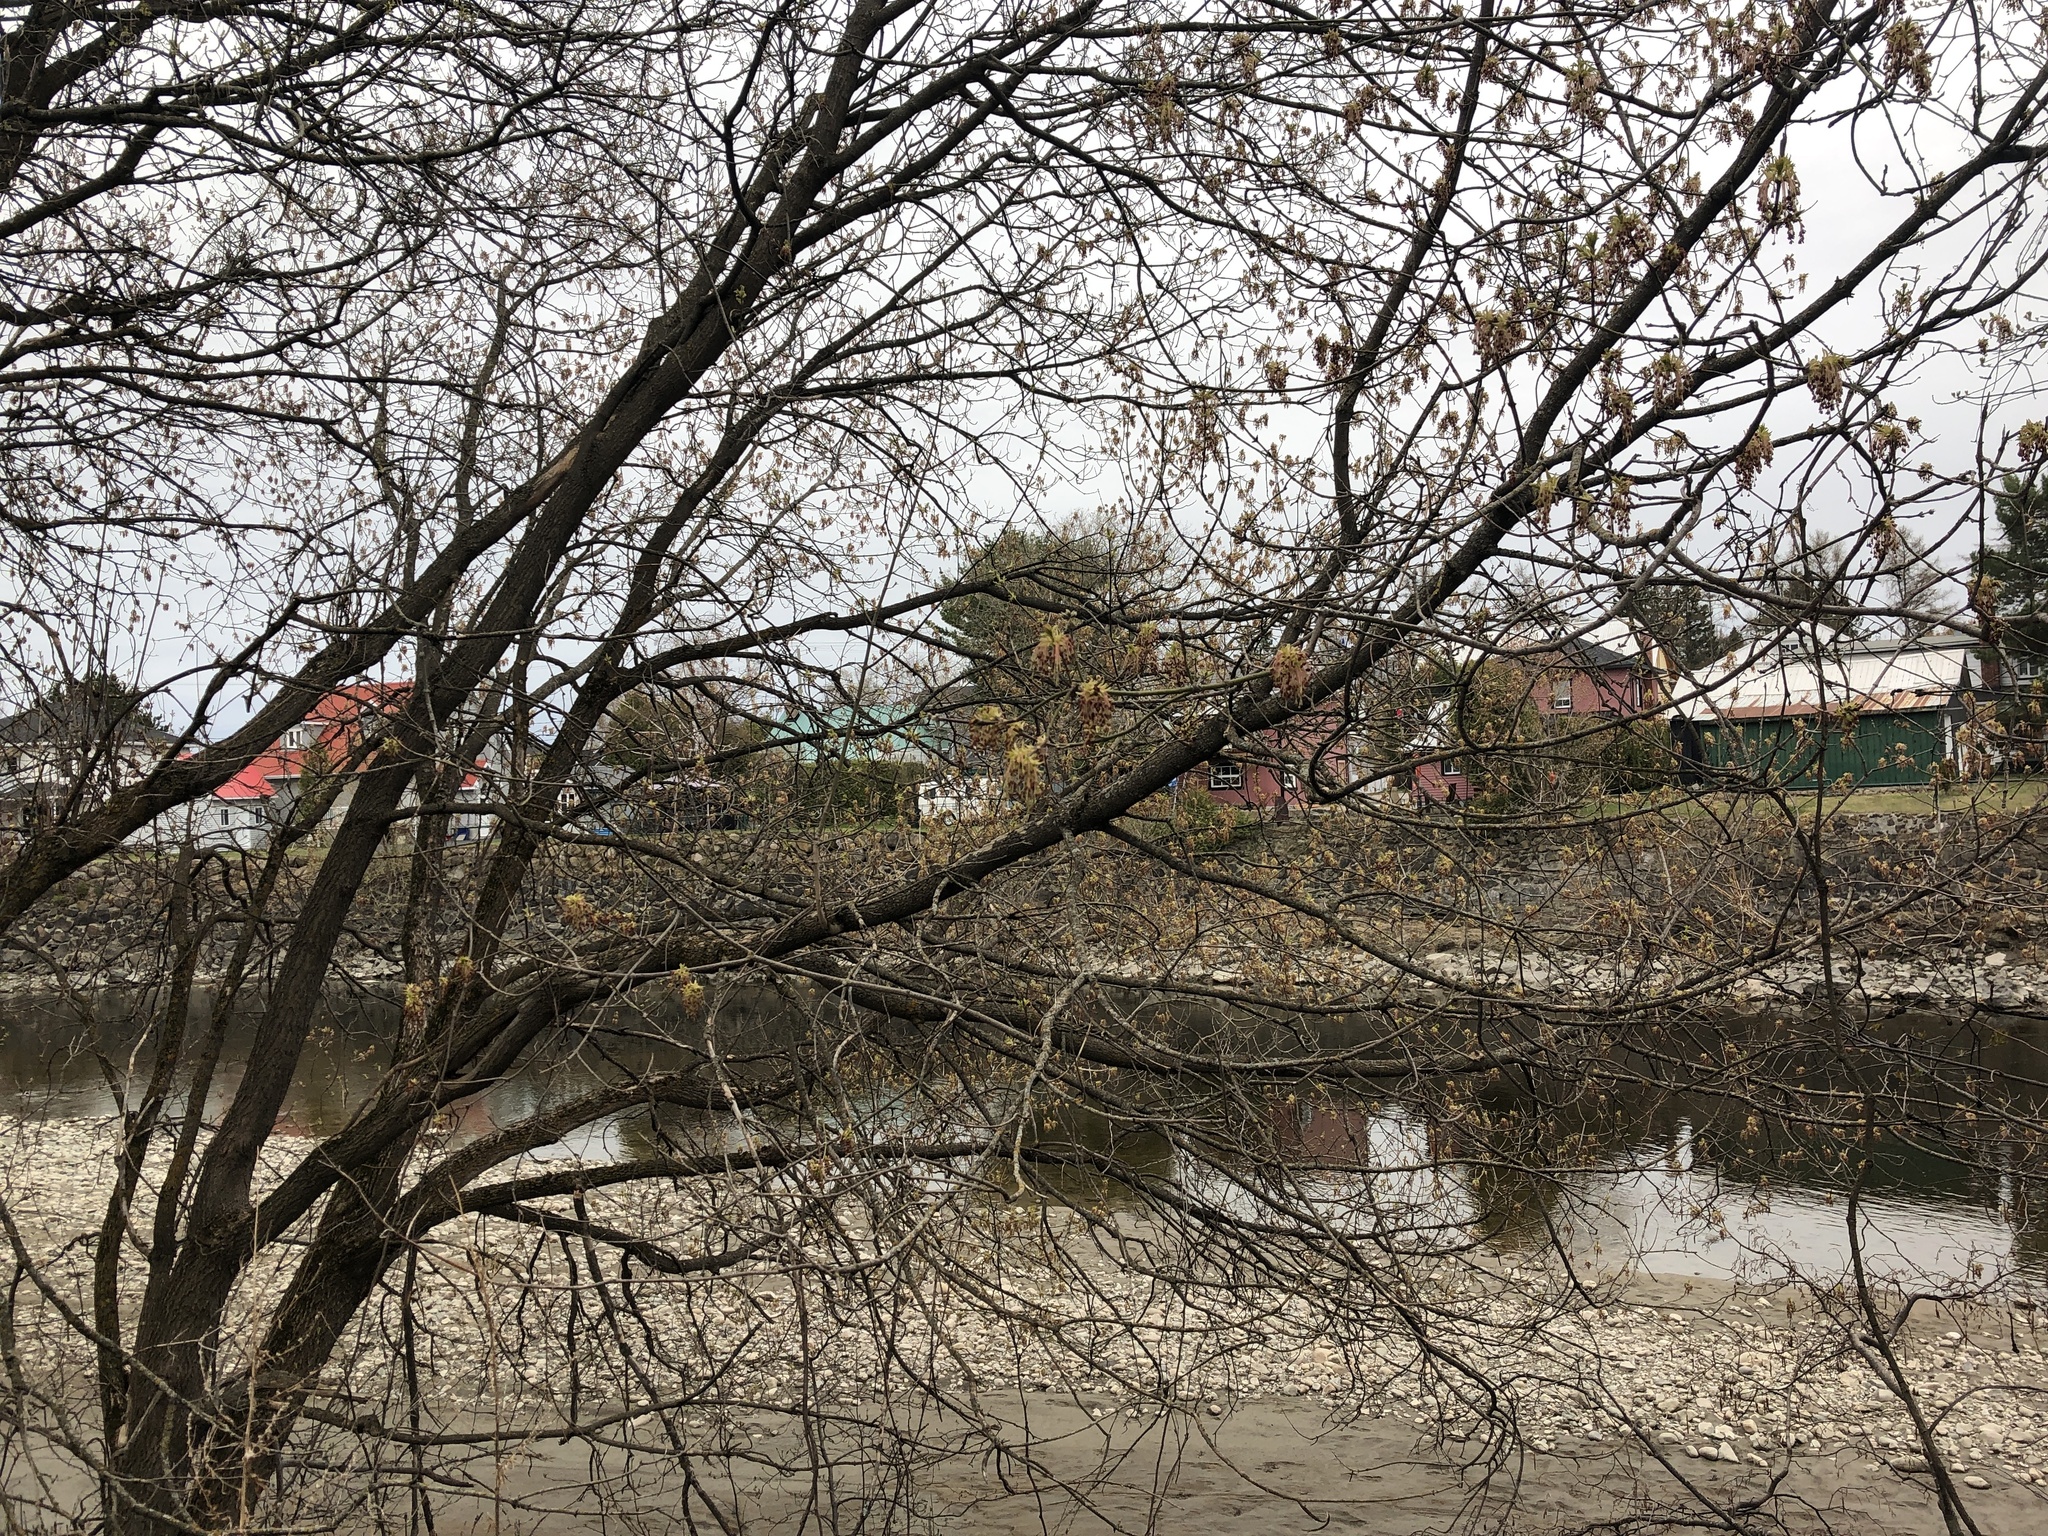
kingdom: Plantae
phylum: Tracheophyta
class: Magnoliopsida
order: Sapindales
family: Sapindaceae
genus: Acer
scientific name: Acer negundo
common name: Ashleaf maple
